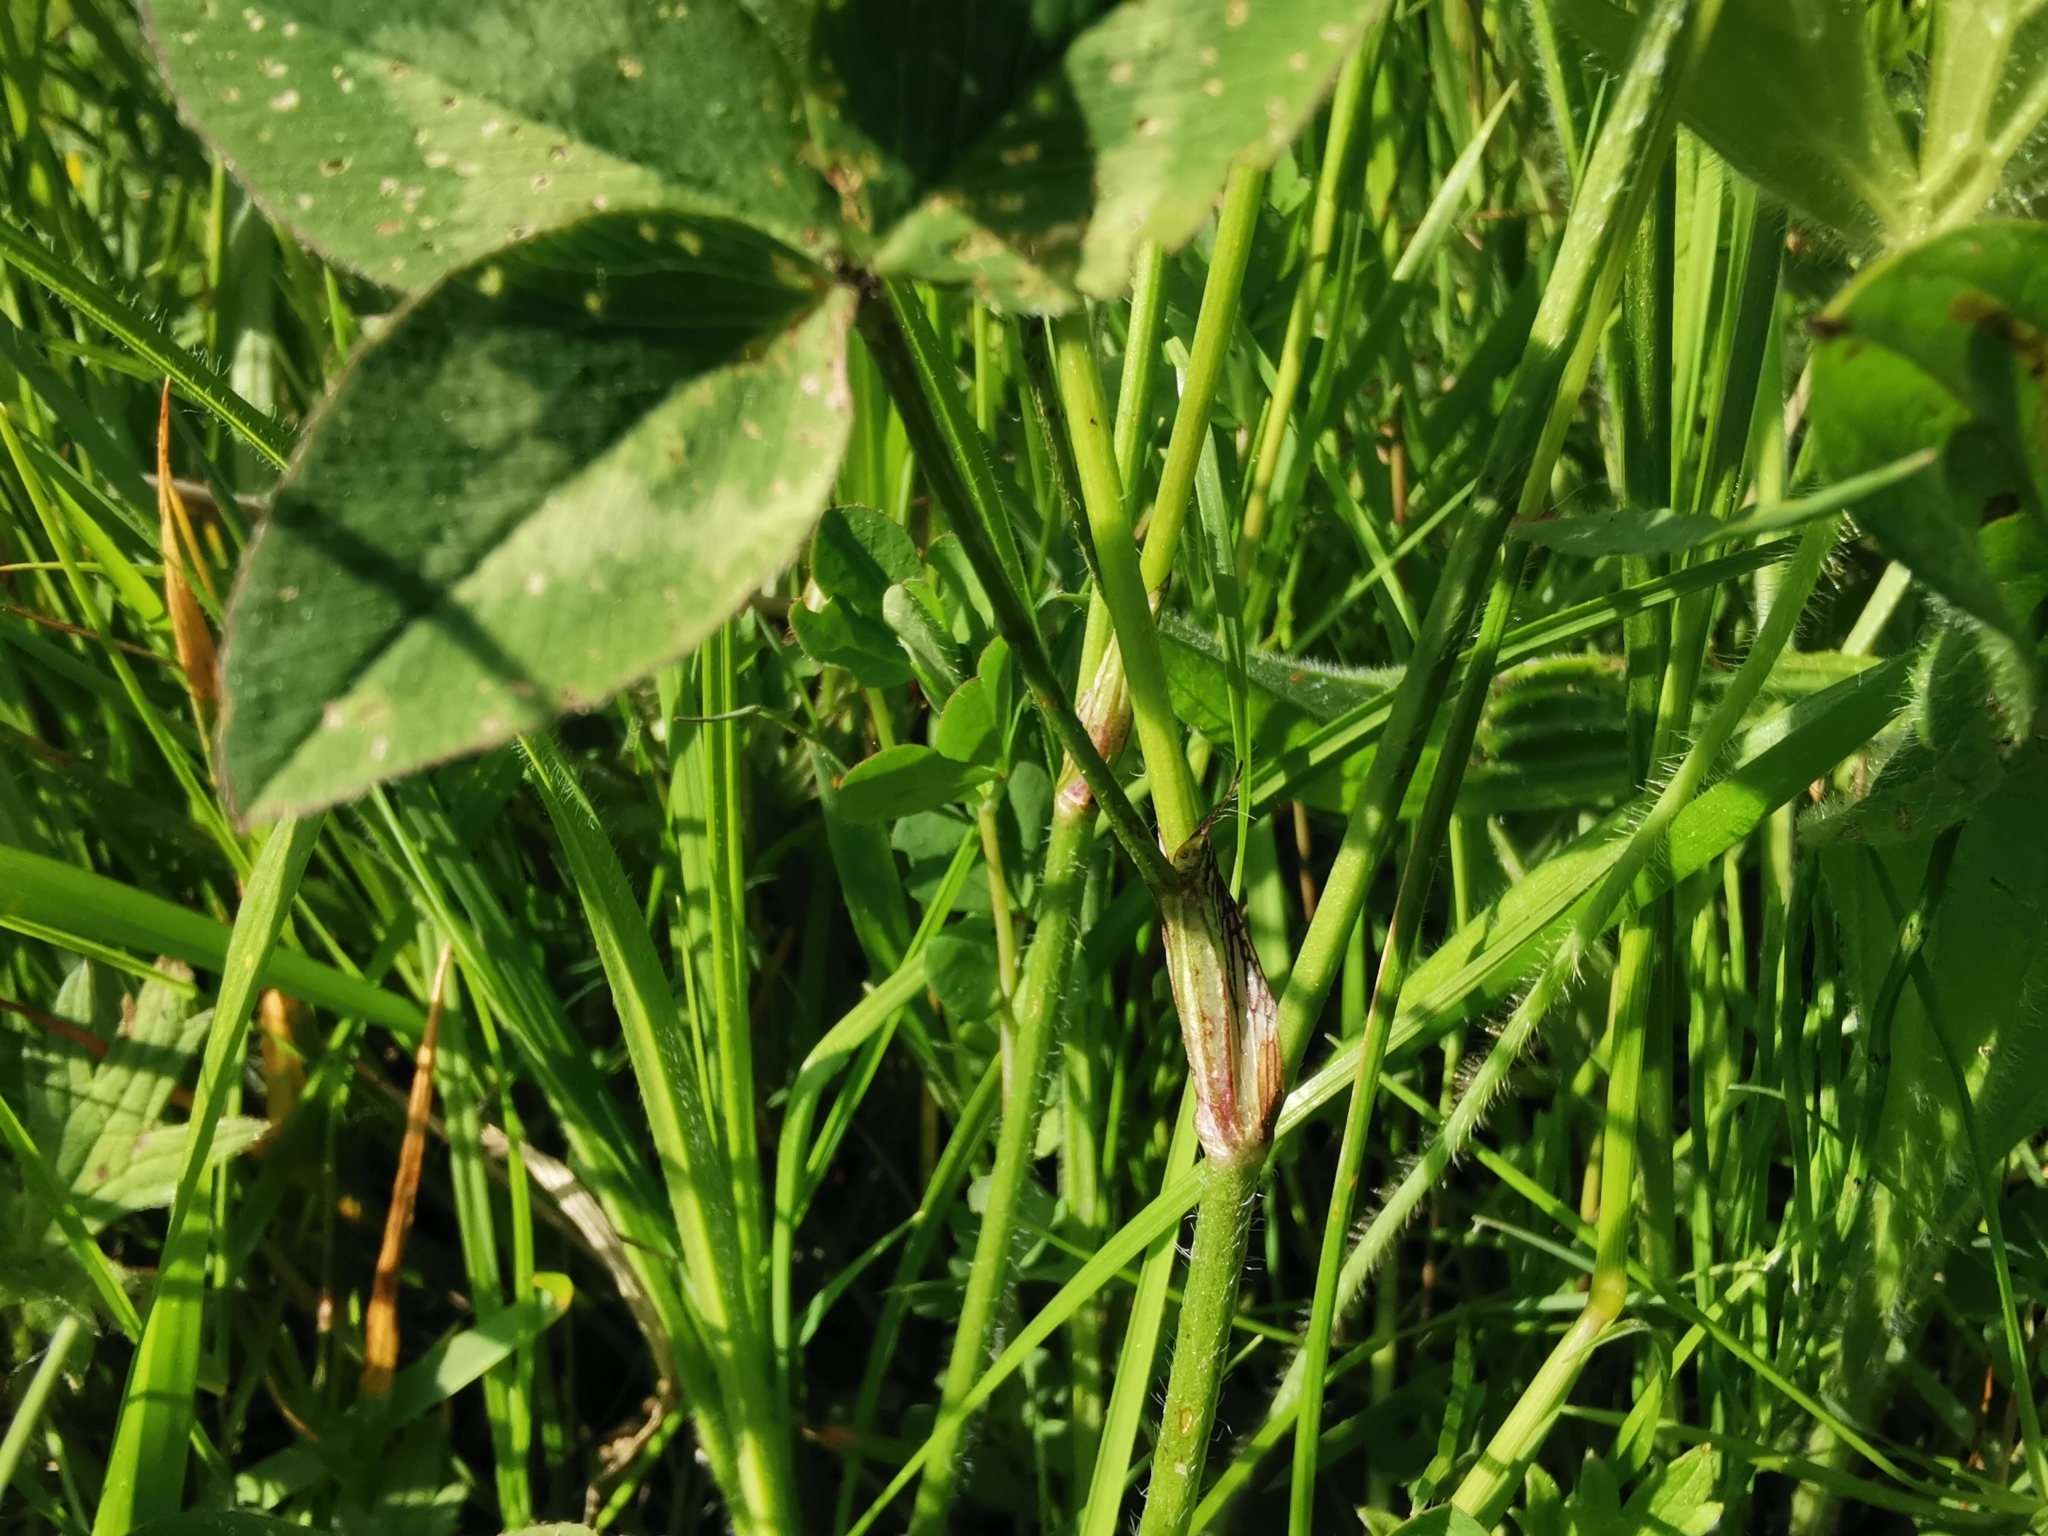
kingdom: Plantae
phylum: Tracheophyta
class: Magnoliopsida
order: Fabales
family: Fabaceae
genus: Trifolium
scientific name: Trifolium pratense
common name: Red clover
